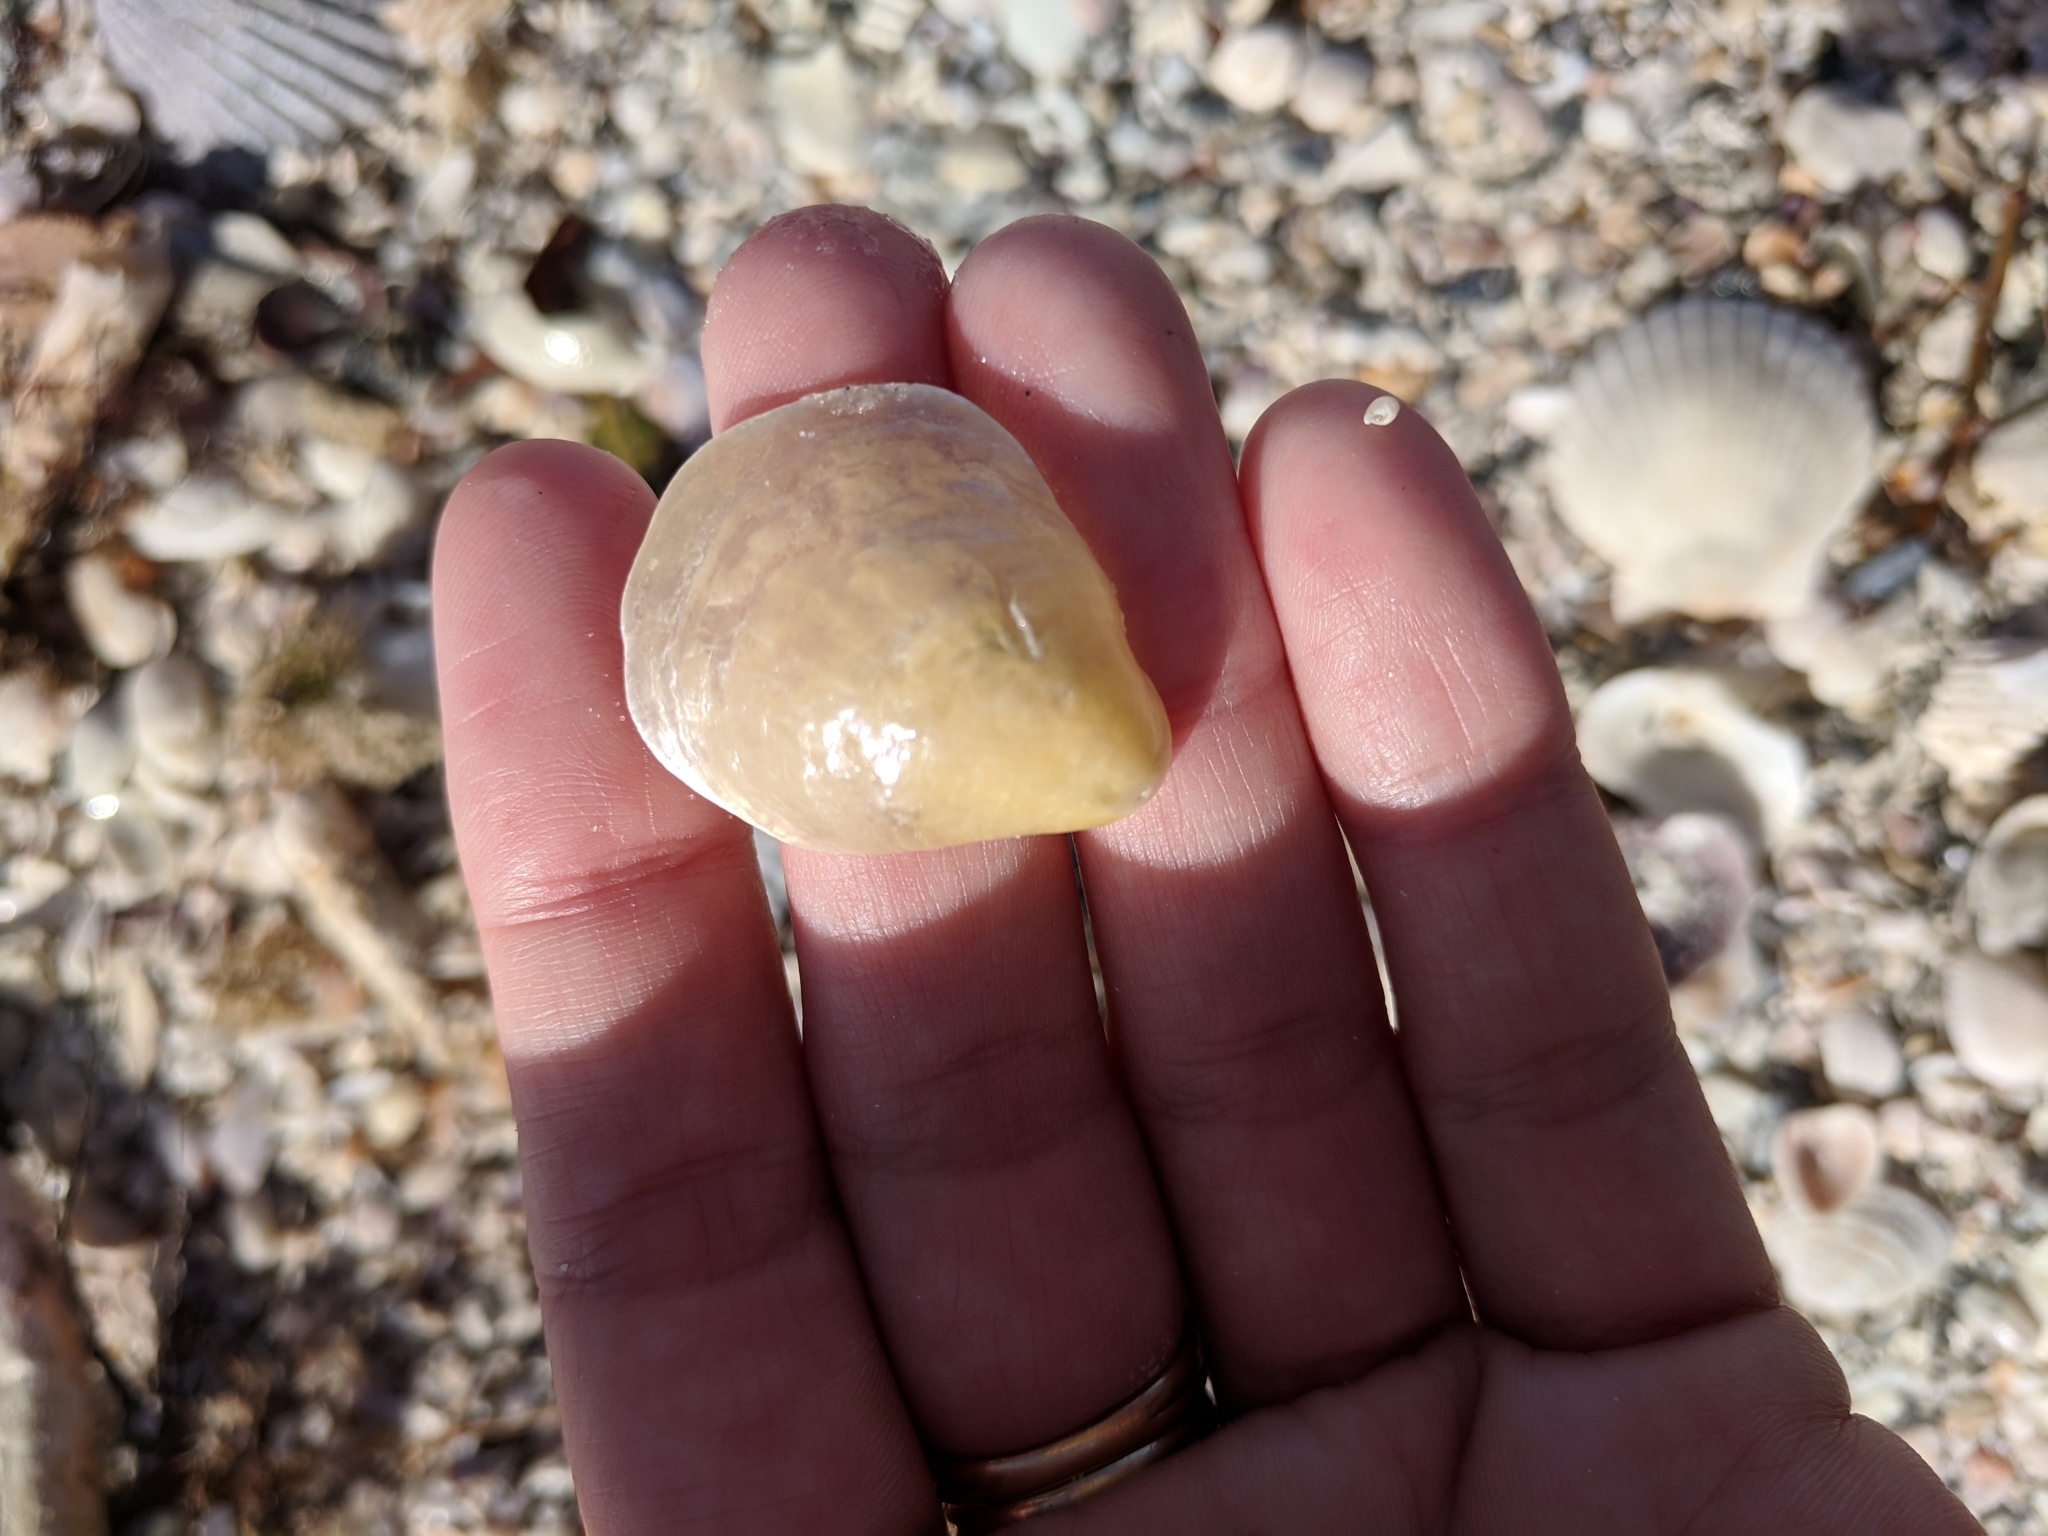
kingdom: Animalia
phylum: Mollusca
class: Bivalvia
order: Pectinida
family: Anomiidae
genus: Anomia
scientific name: Anomia simplex
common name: Common jingle shell
